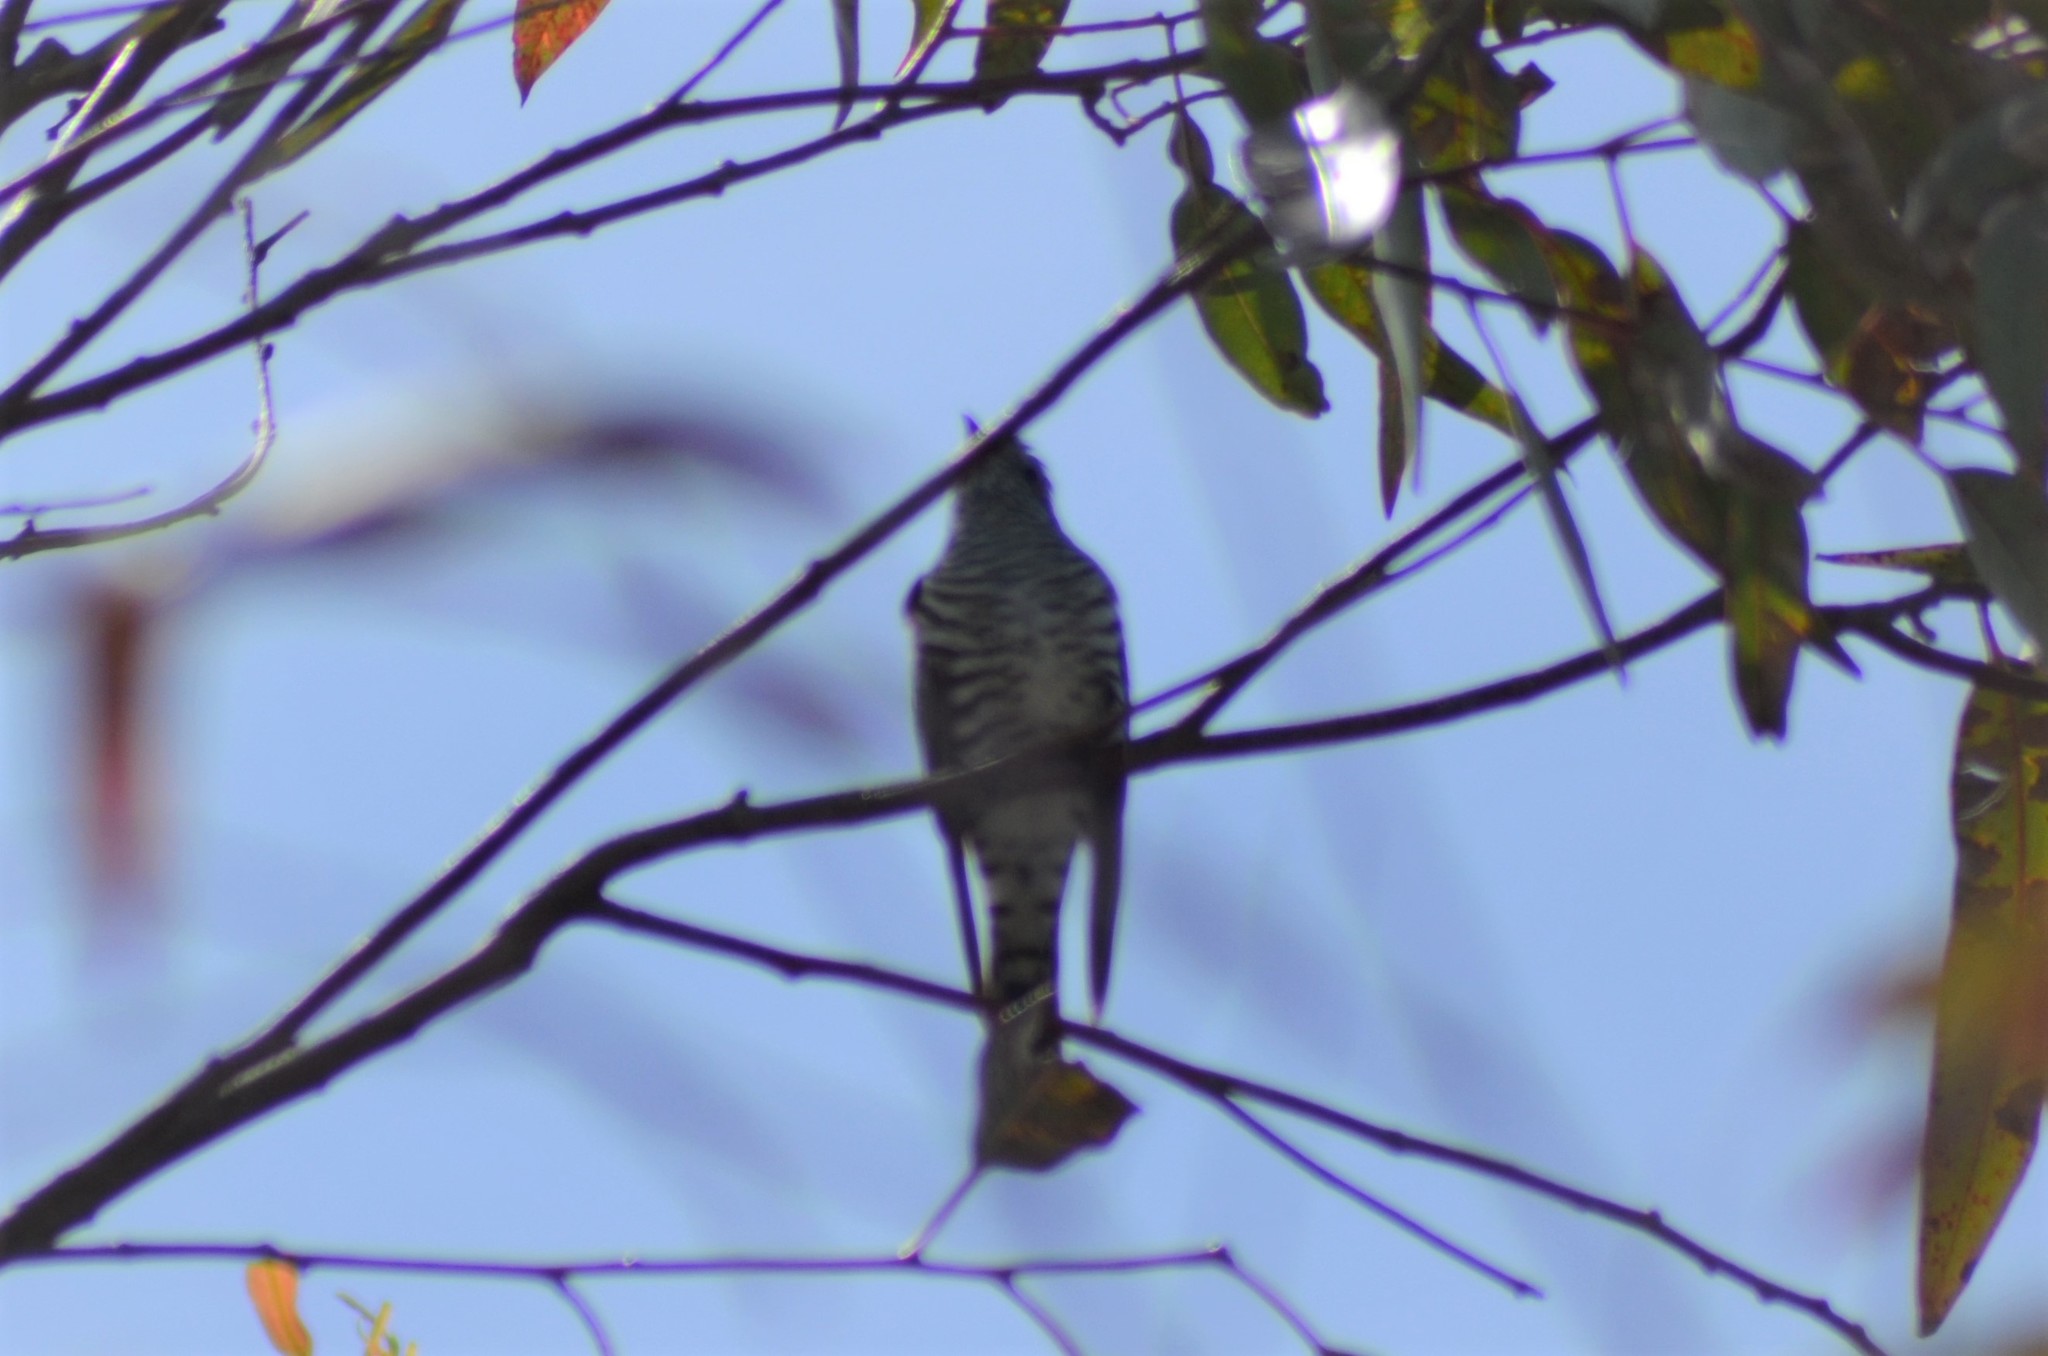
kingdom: Animalia
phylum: Chordata
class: Aves
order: Cuculiformes
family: Cuculidae
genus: Chrysococcyx
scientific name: Chrysococcyx lucidus
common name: Shining bronze cuckoo
